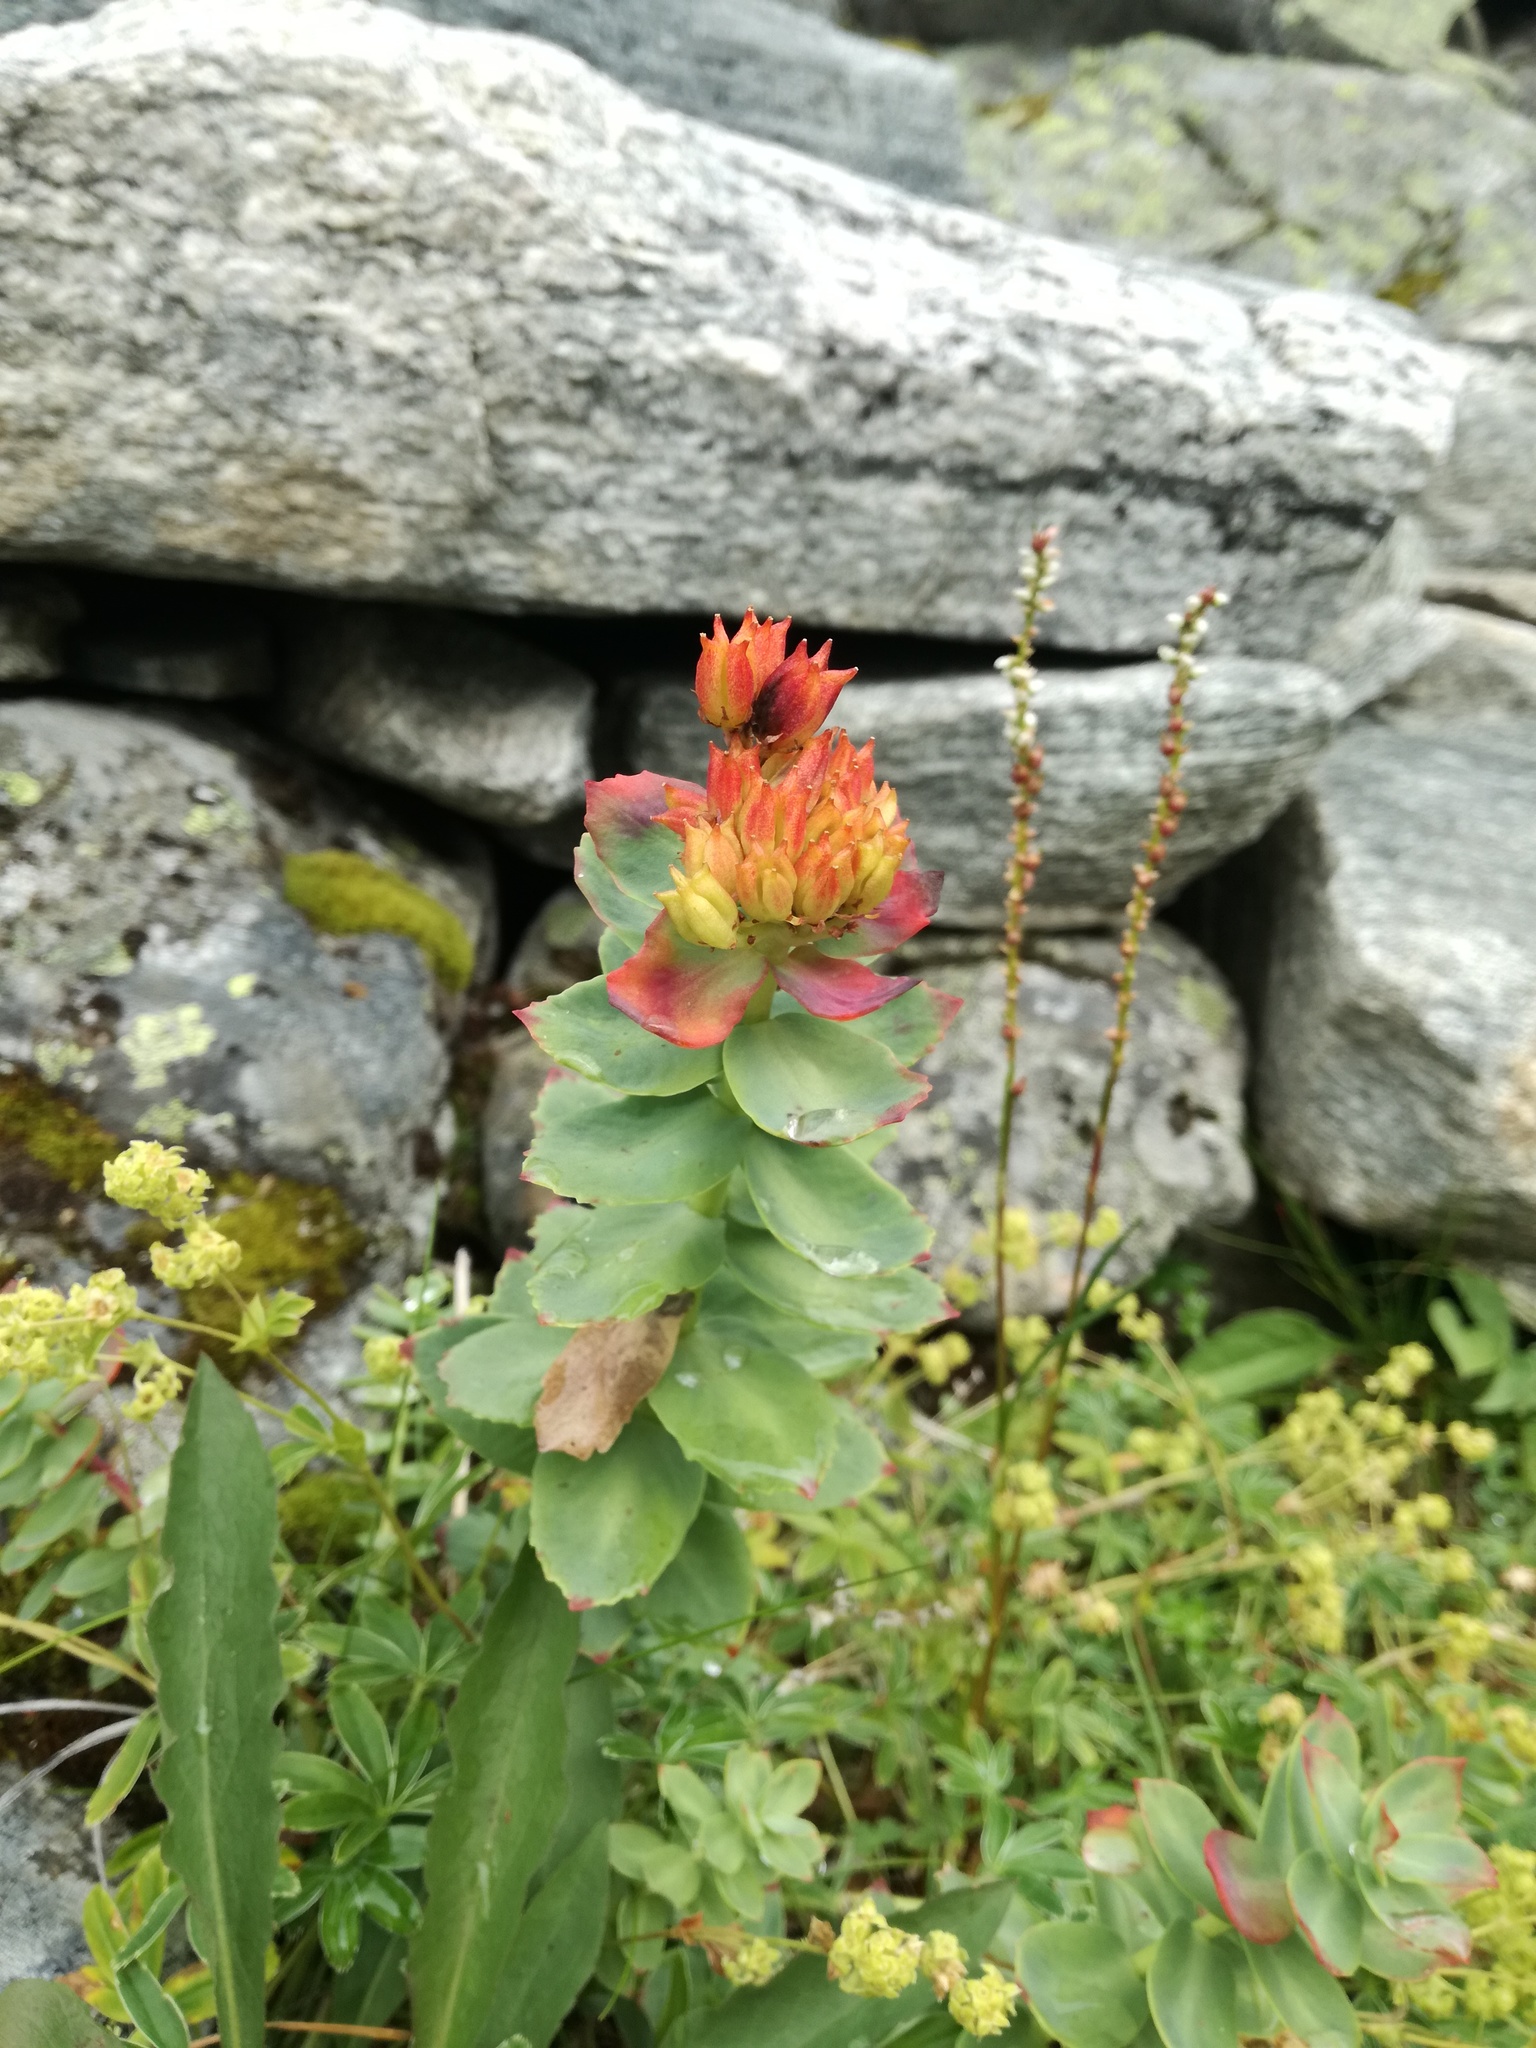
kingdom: Plantae
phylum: Tracheophyta
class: Magnoliopsida
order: Saxifragales
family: Crassulaceae
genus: Rhodiola
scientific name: Rhodiola rosea
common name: Roseroot
